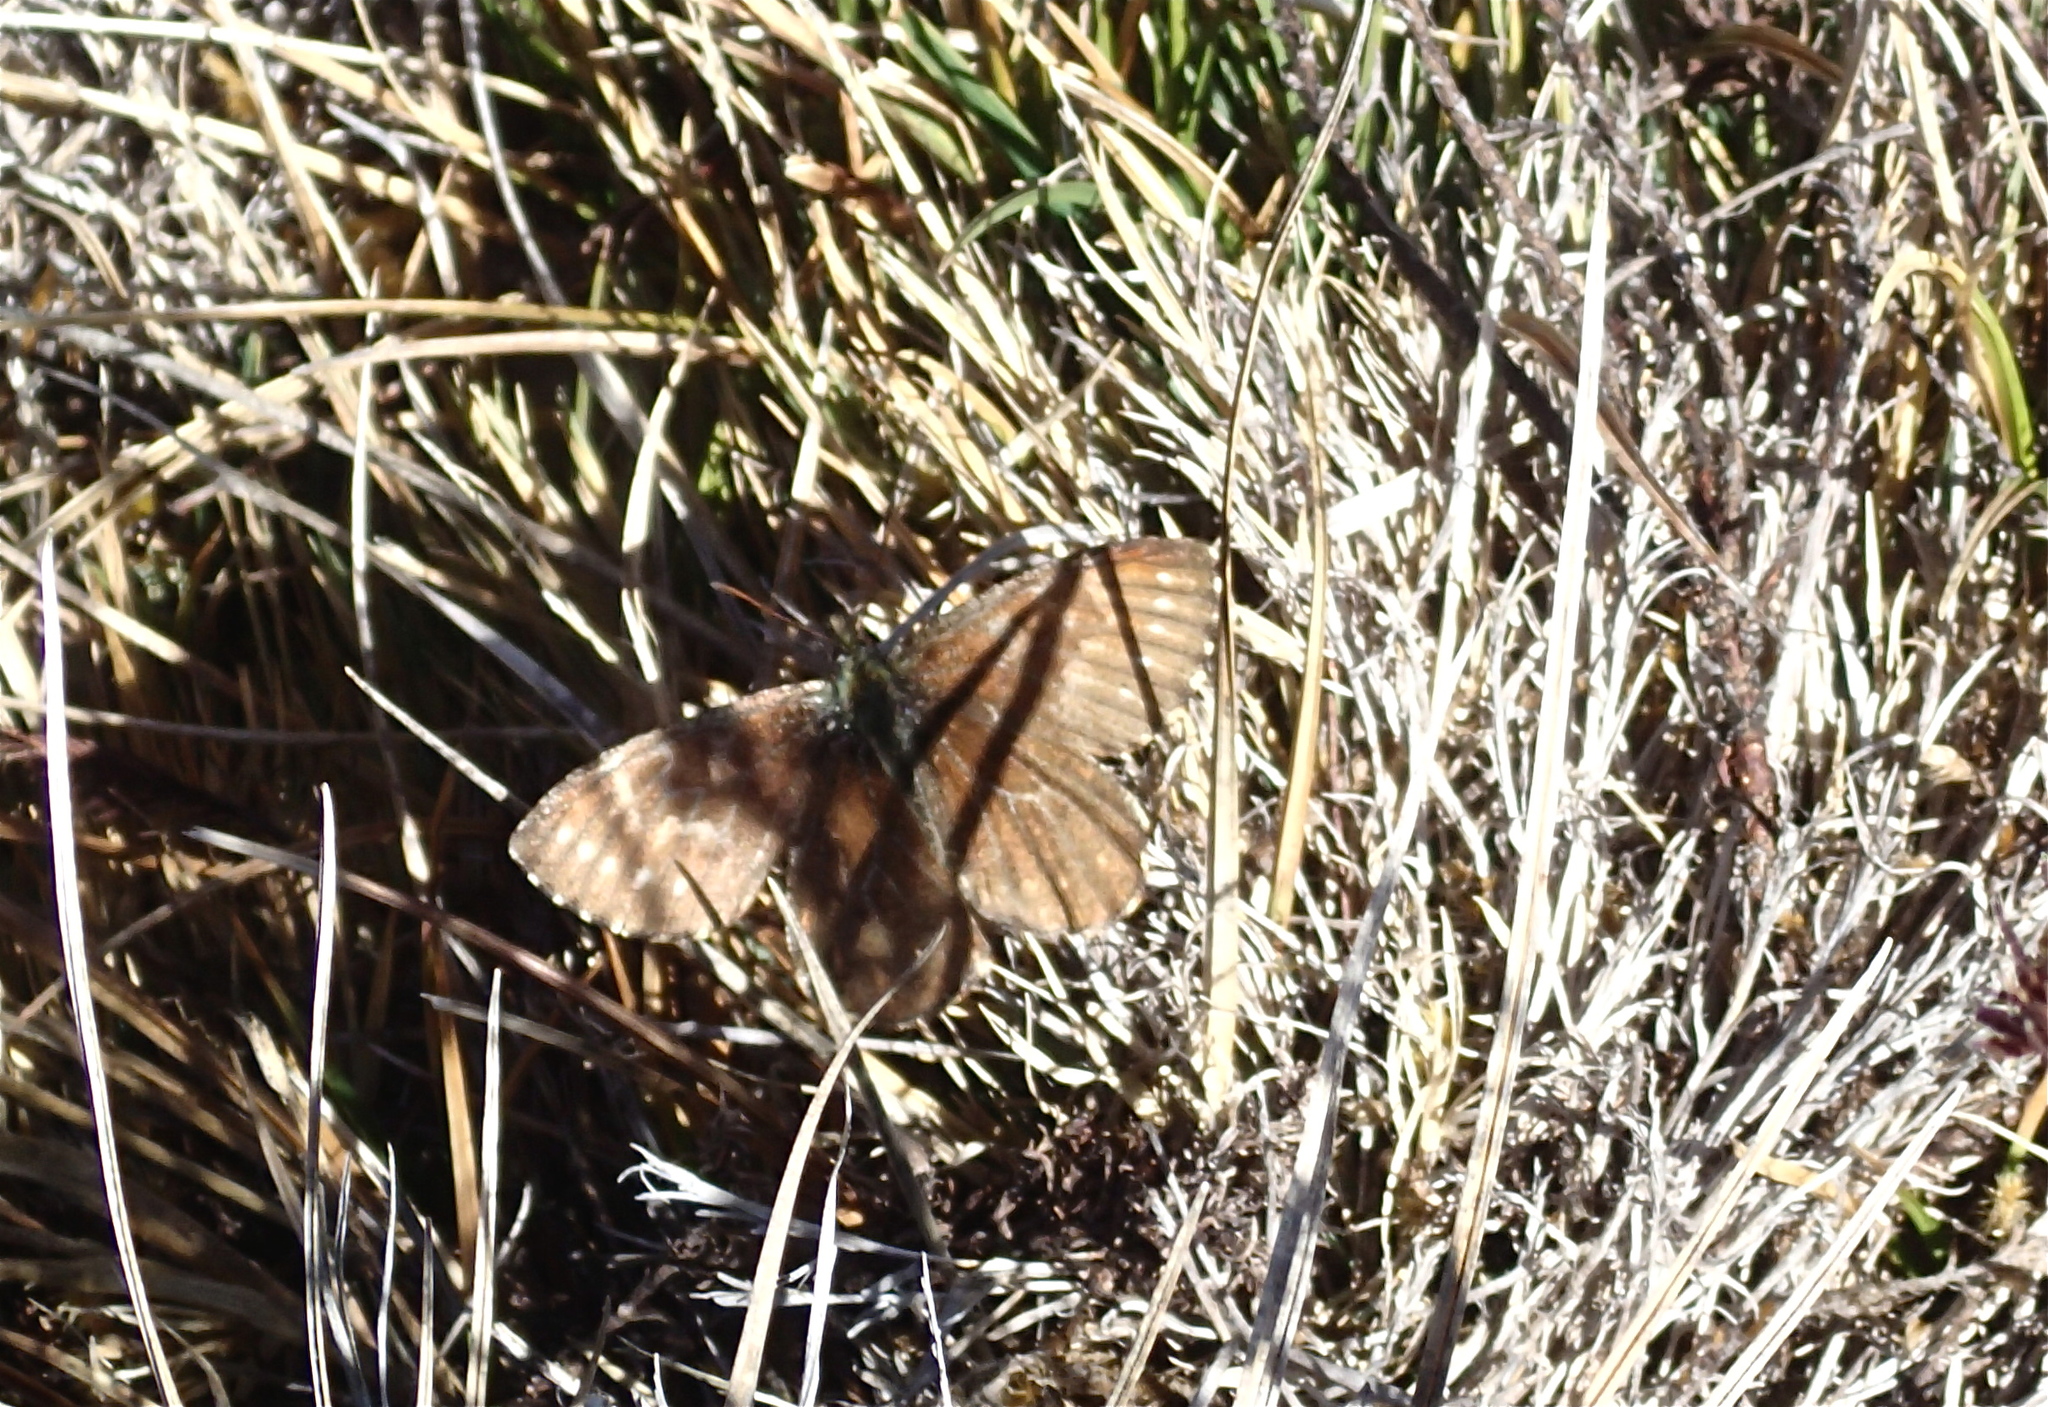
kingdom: Animalia
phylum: Arthropoda
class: Insecta
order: Lepidoptera
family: Nymphalidae
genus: Altopedaliodes
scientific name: Altopedaliodes
